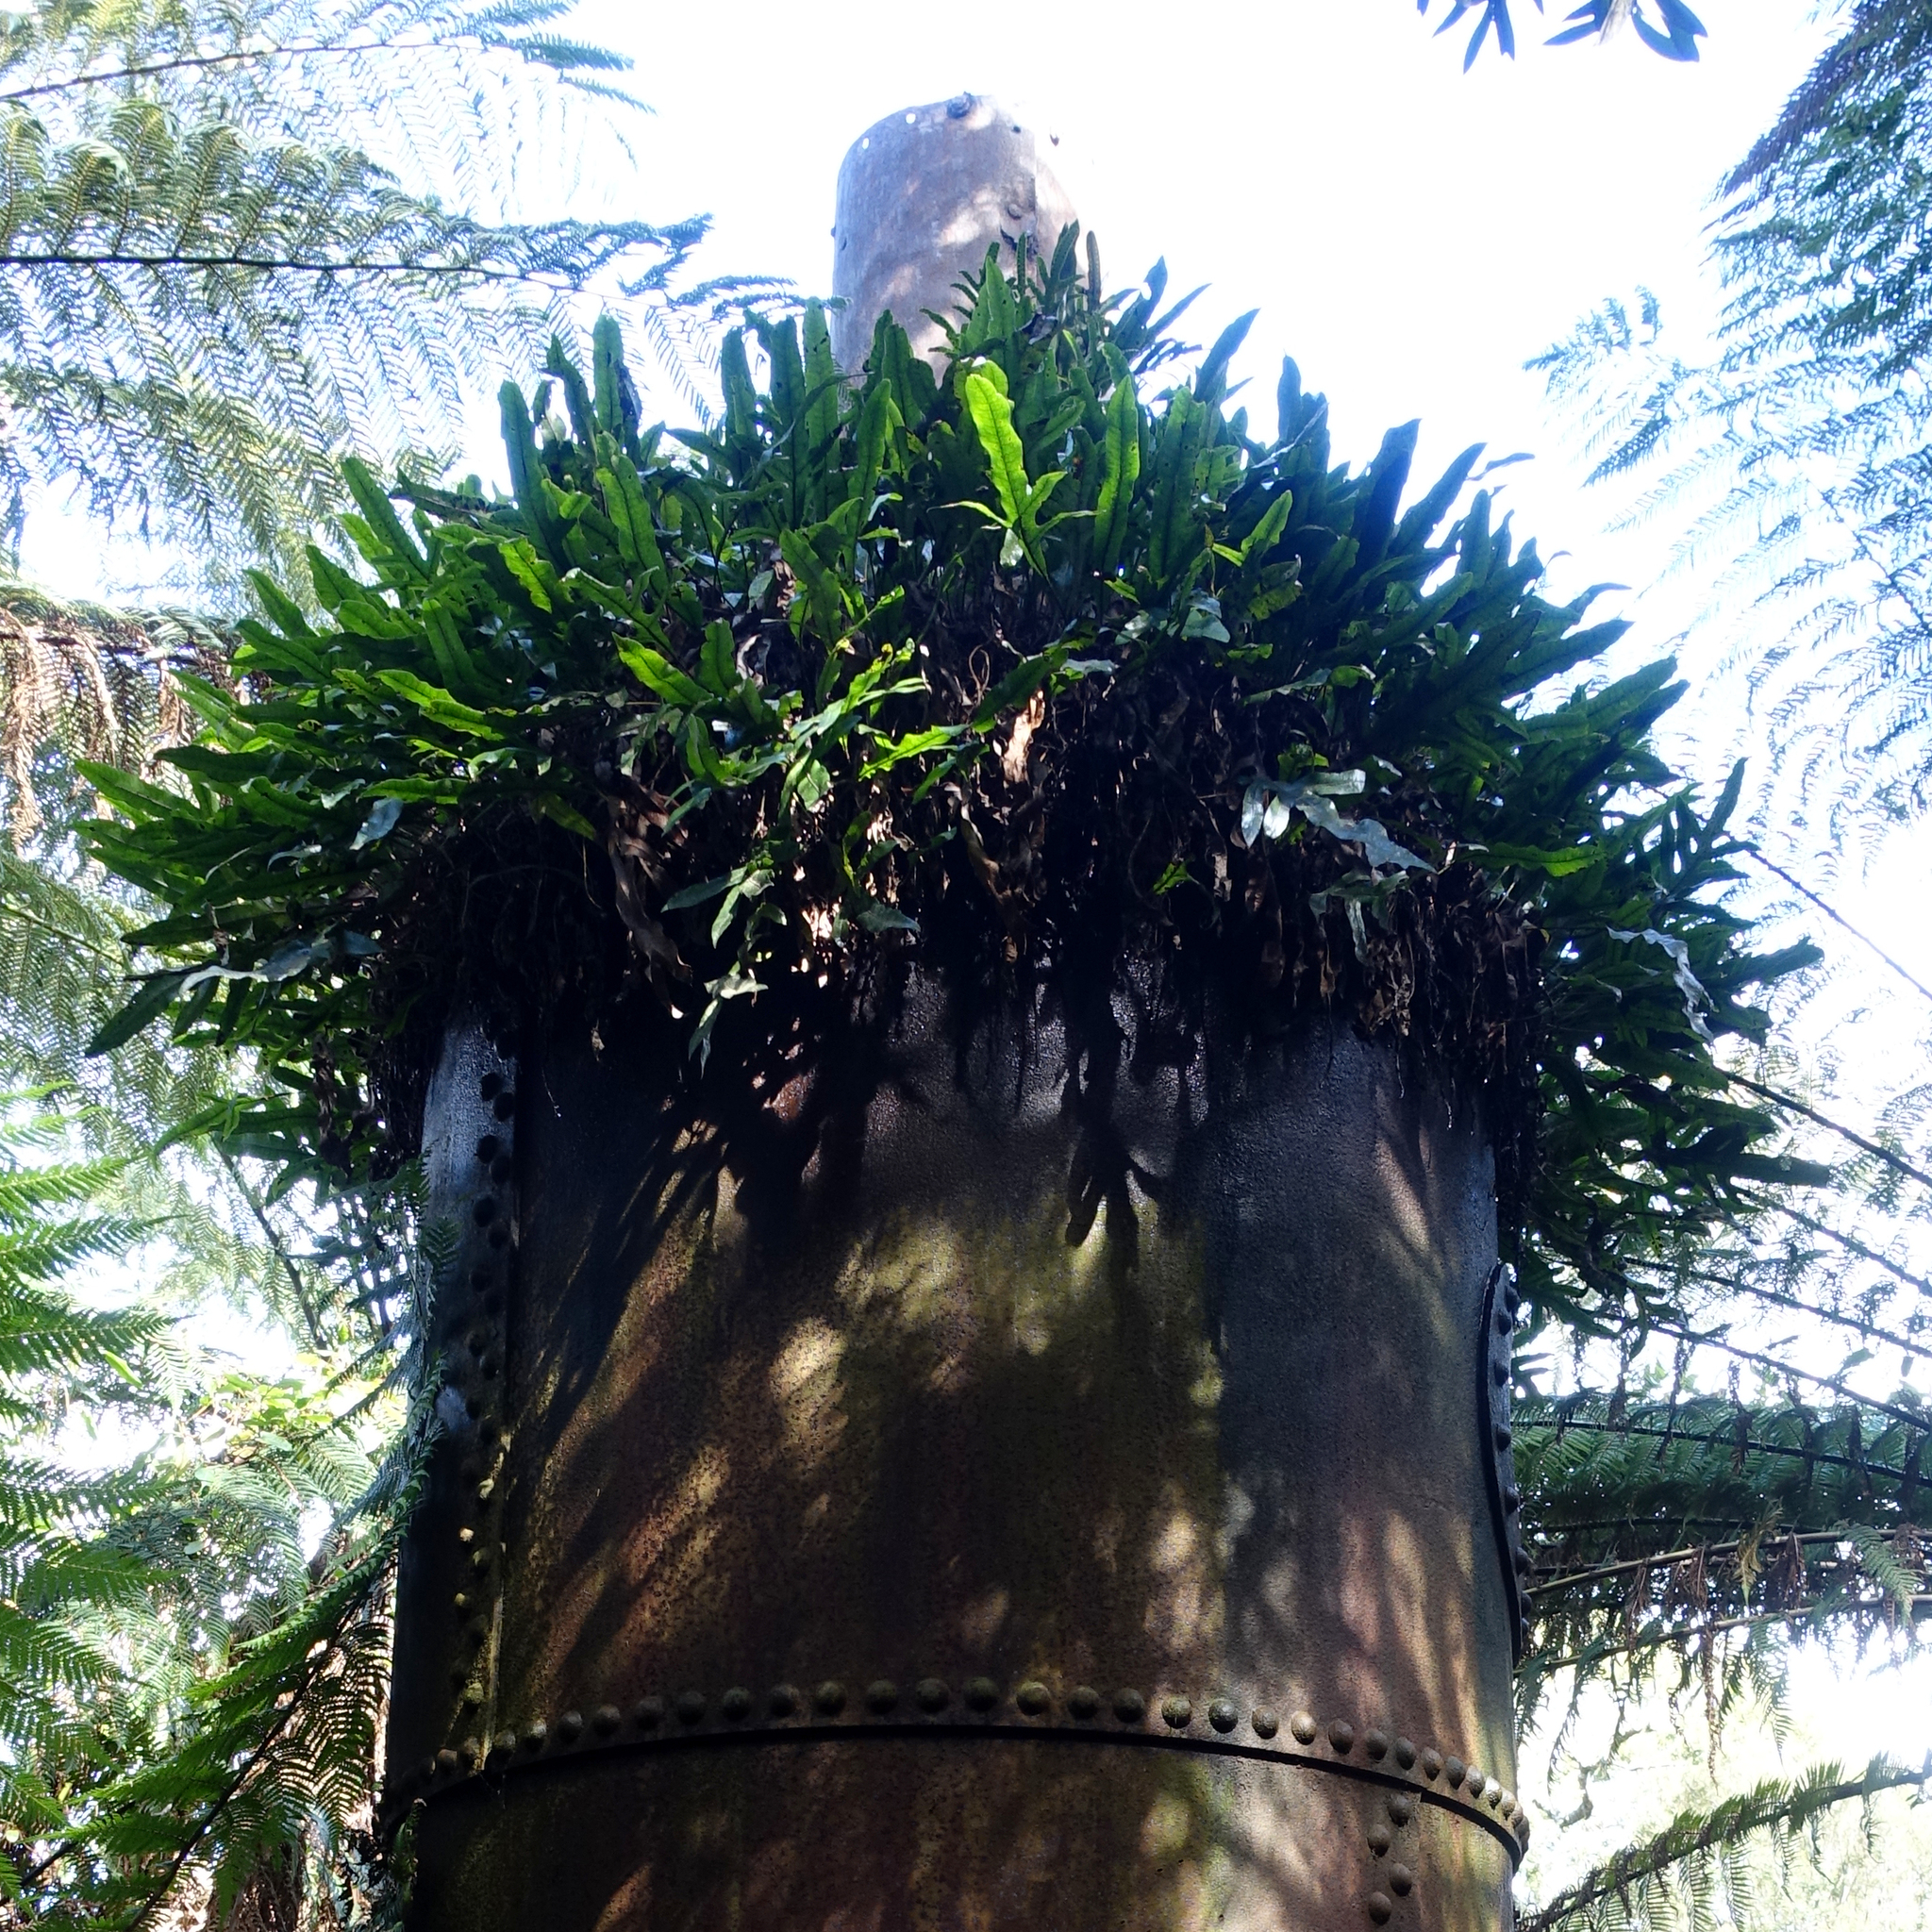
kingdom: Plantae
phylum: Tracheophyta
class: Polypodiopsida
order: Polypodiales
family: Polypodiaceae
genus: Lecanopteris
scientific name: Lecanopteris pustulata
